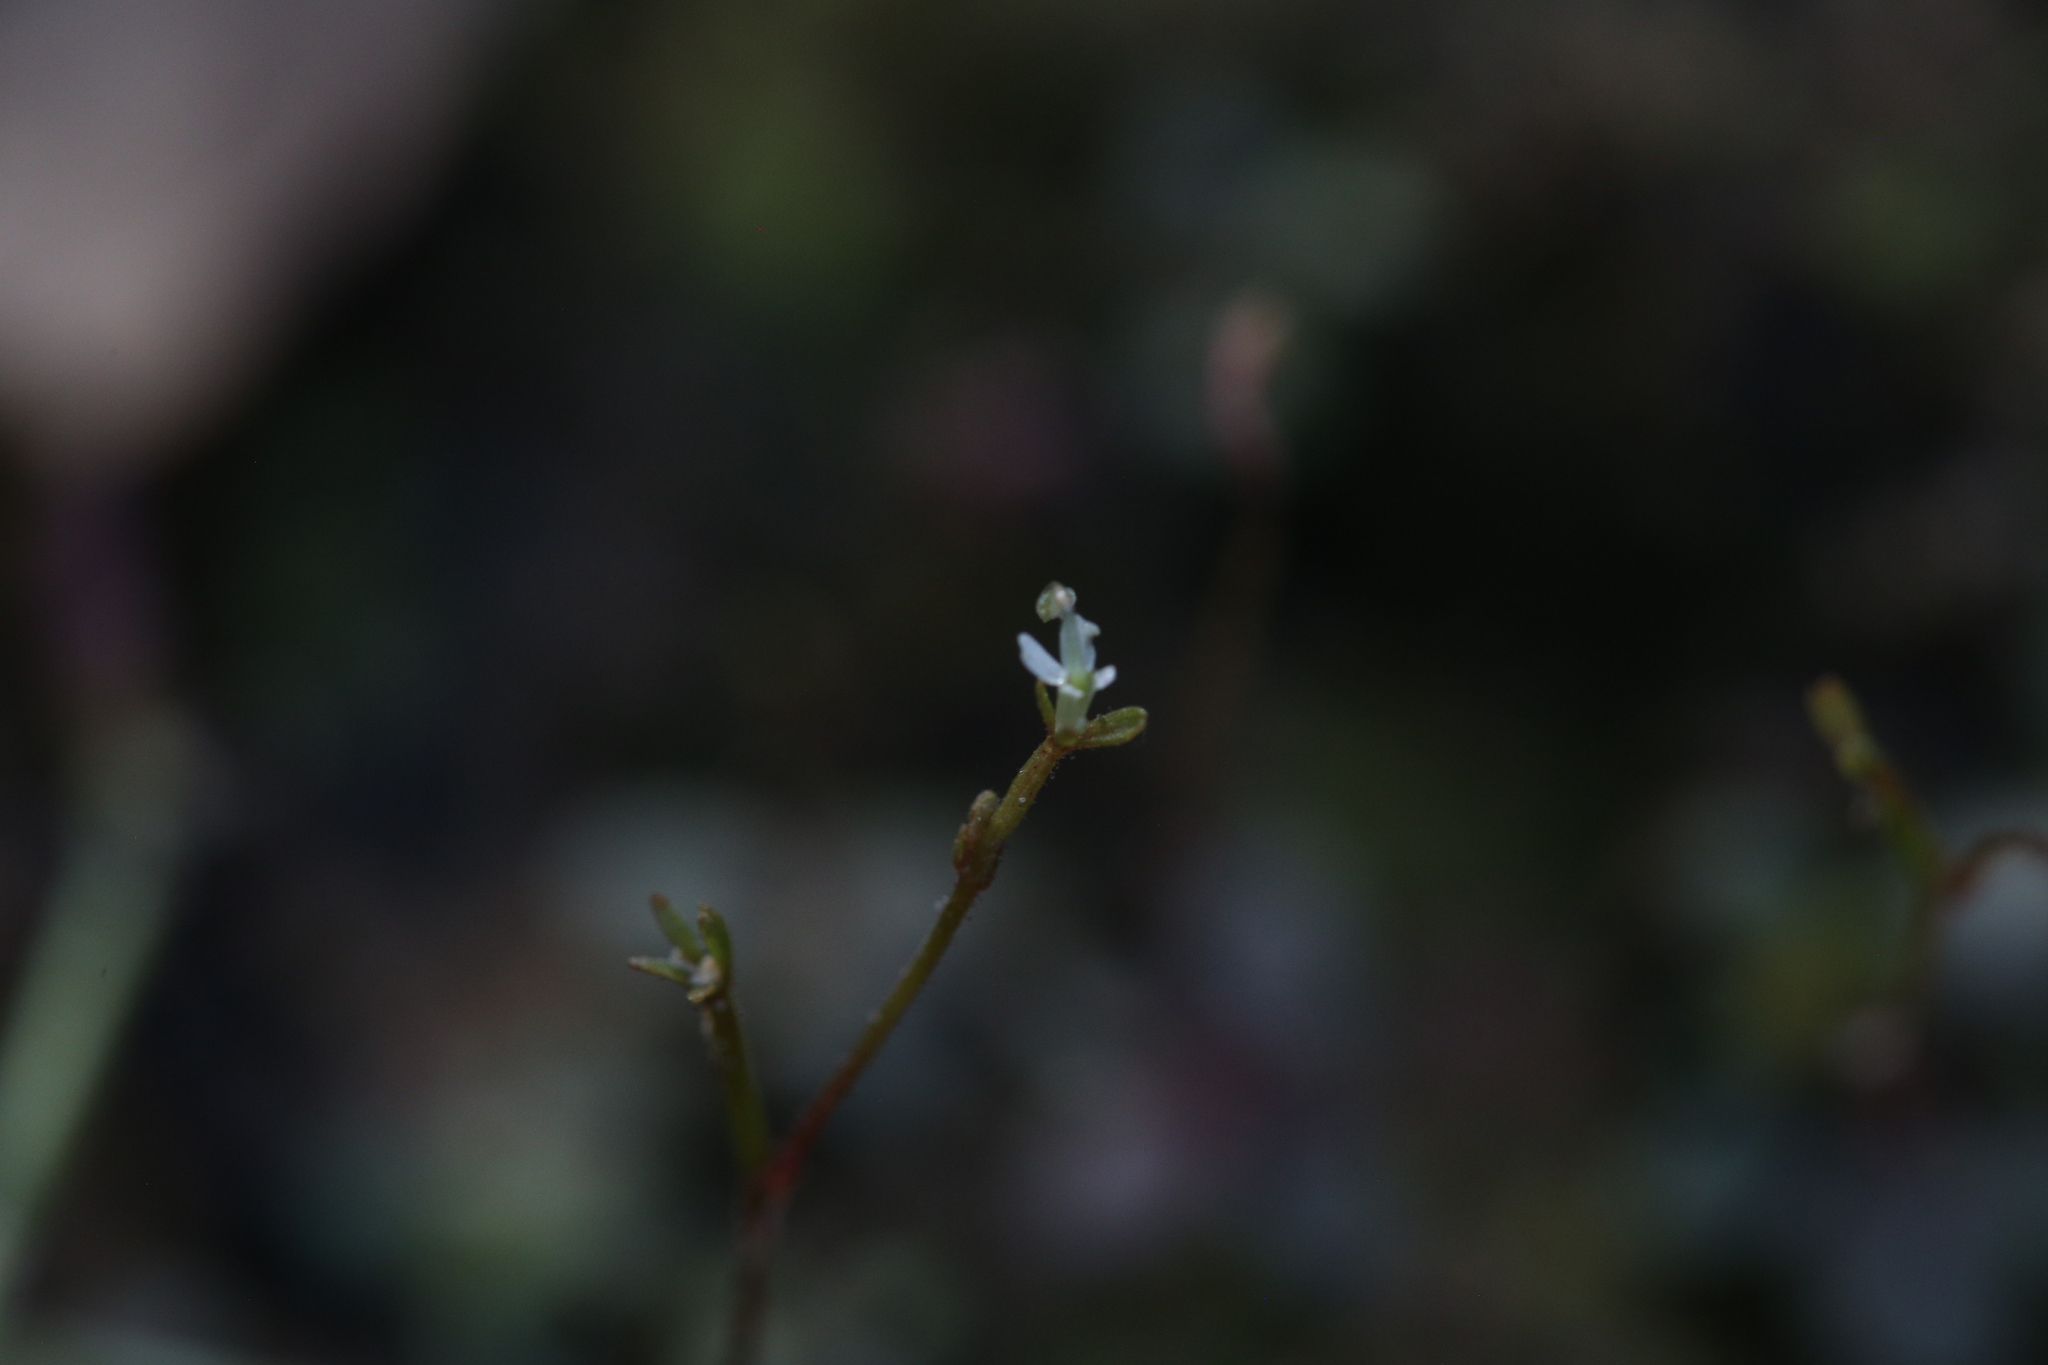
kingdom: Plantae
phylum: Tracheophyta
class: Magnoliopsida
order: Asterales
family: Stylidiaceae
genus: Stylidium
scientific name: Stylidium tenerum
